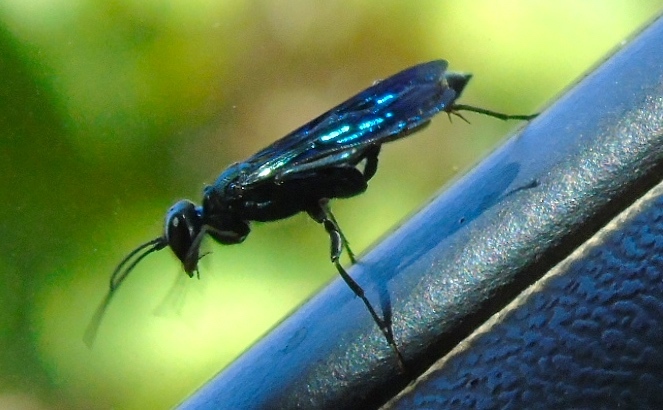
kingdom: Animalia
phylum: Arthropoda
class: Insecta
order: Hymenoptera
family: Sphecidae
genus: Chalybion
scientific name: Chalybion
